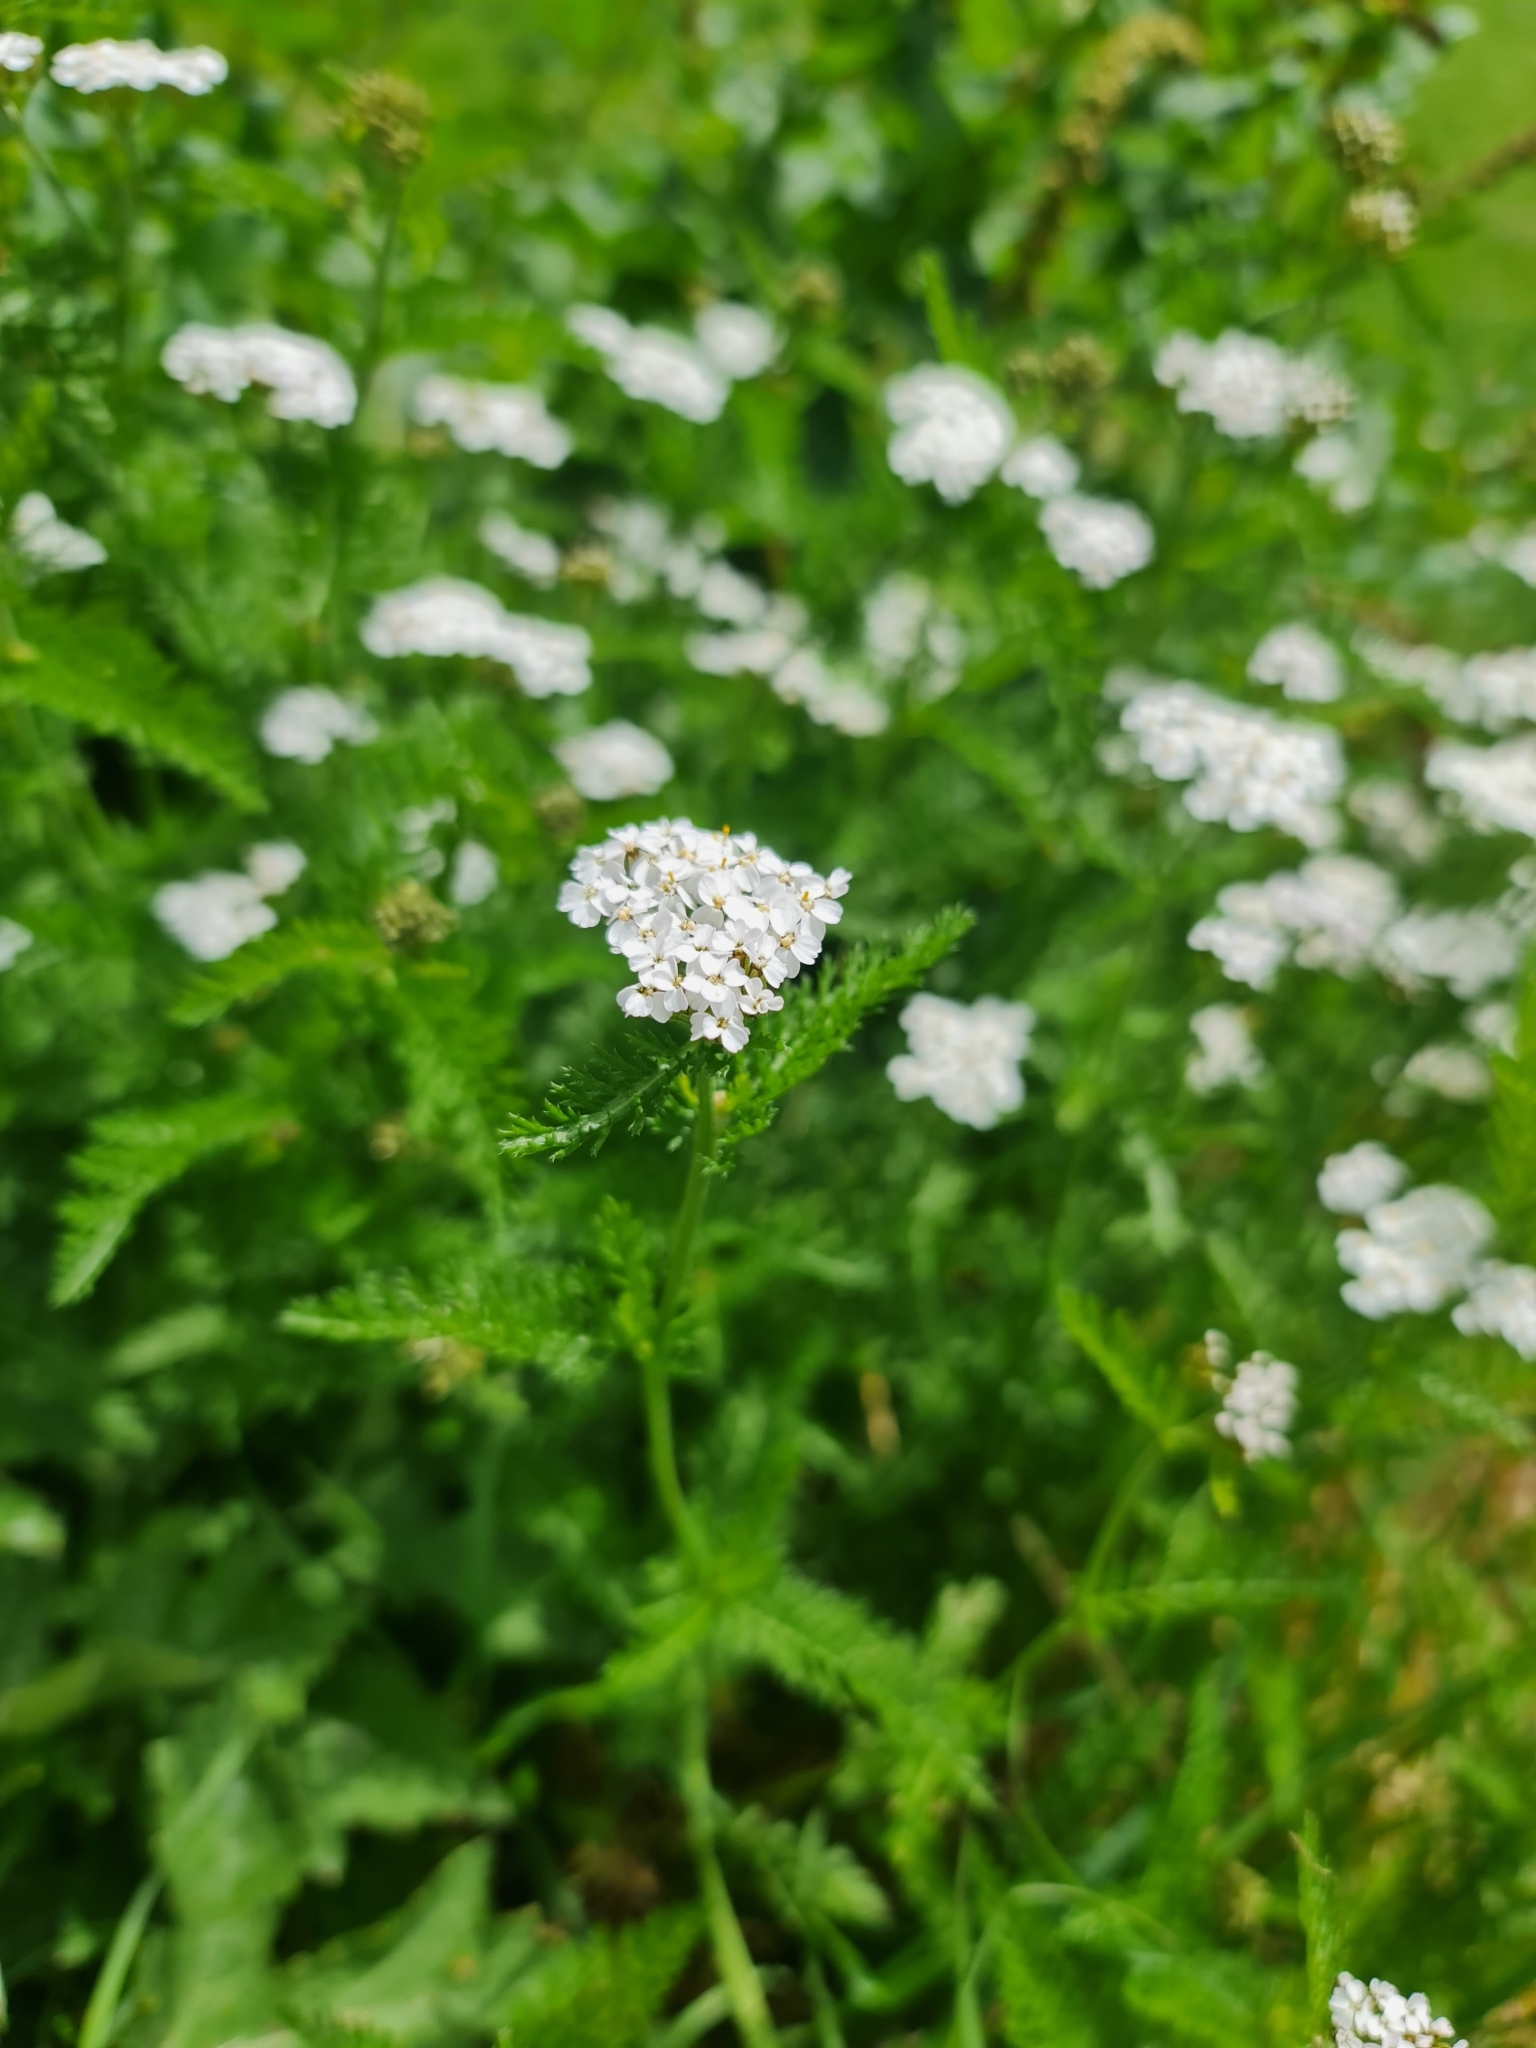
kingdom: Plantae
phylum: Tracheophyta
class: Magnoliopsida
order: Asterales
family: Asteraceae
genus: Achillea
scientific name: Achillea millefolium
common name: Yarrow
